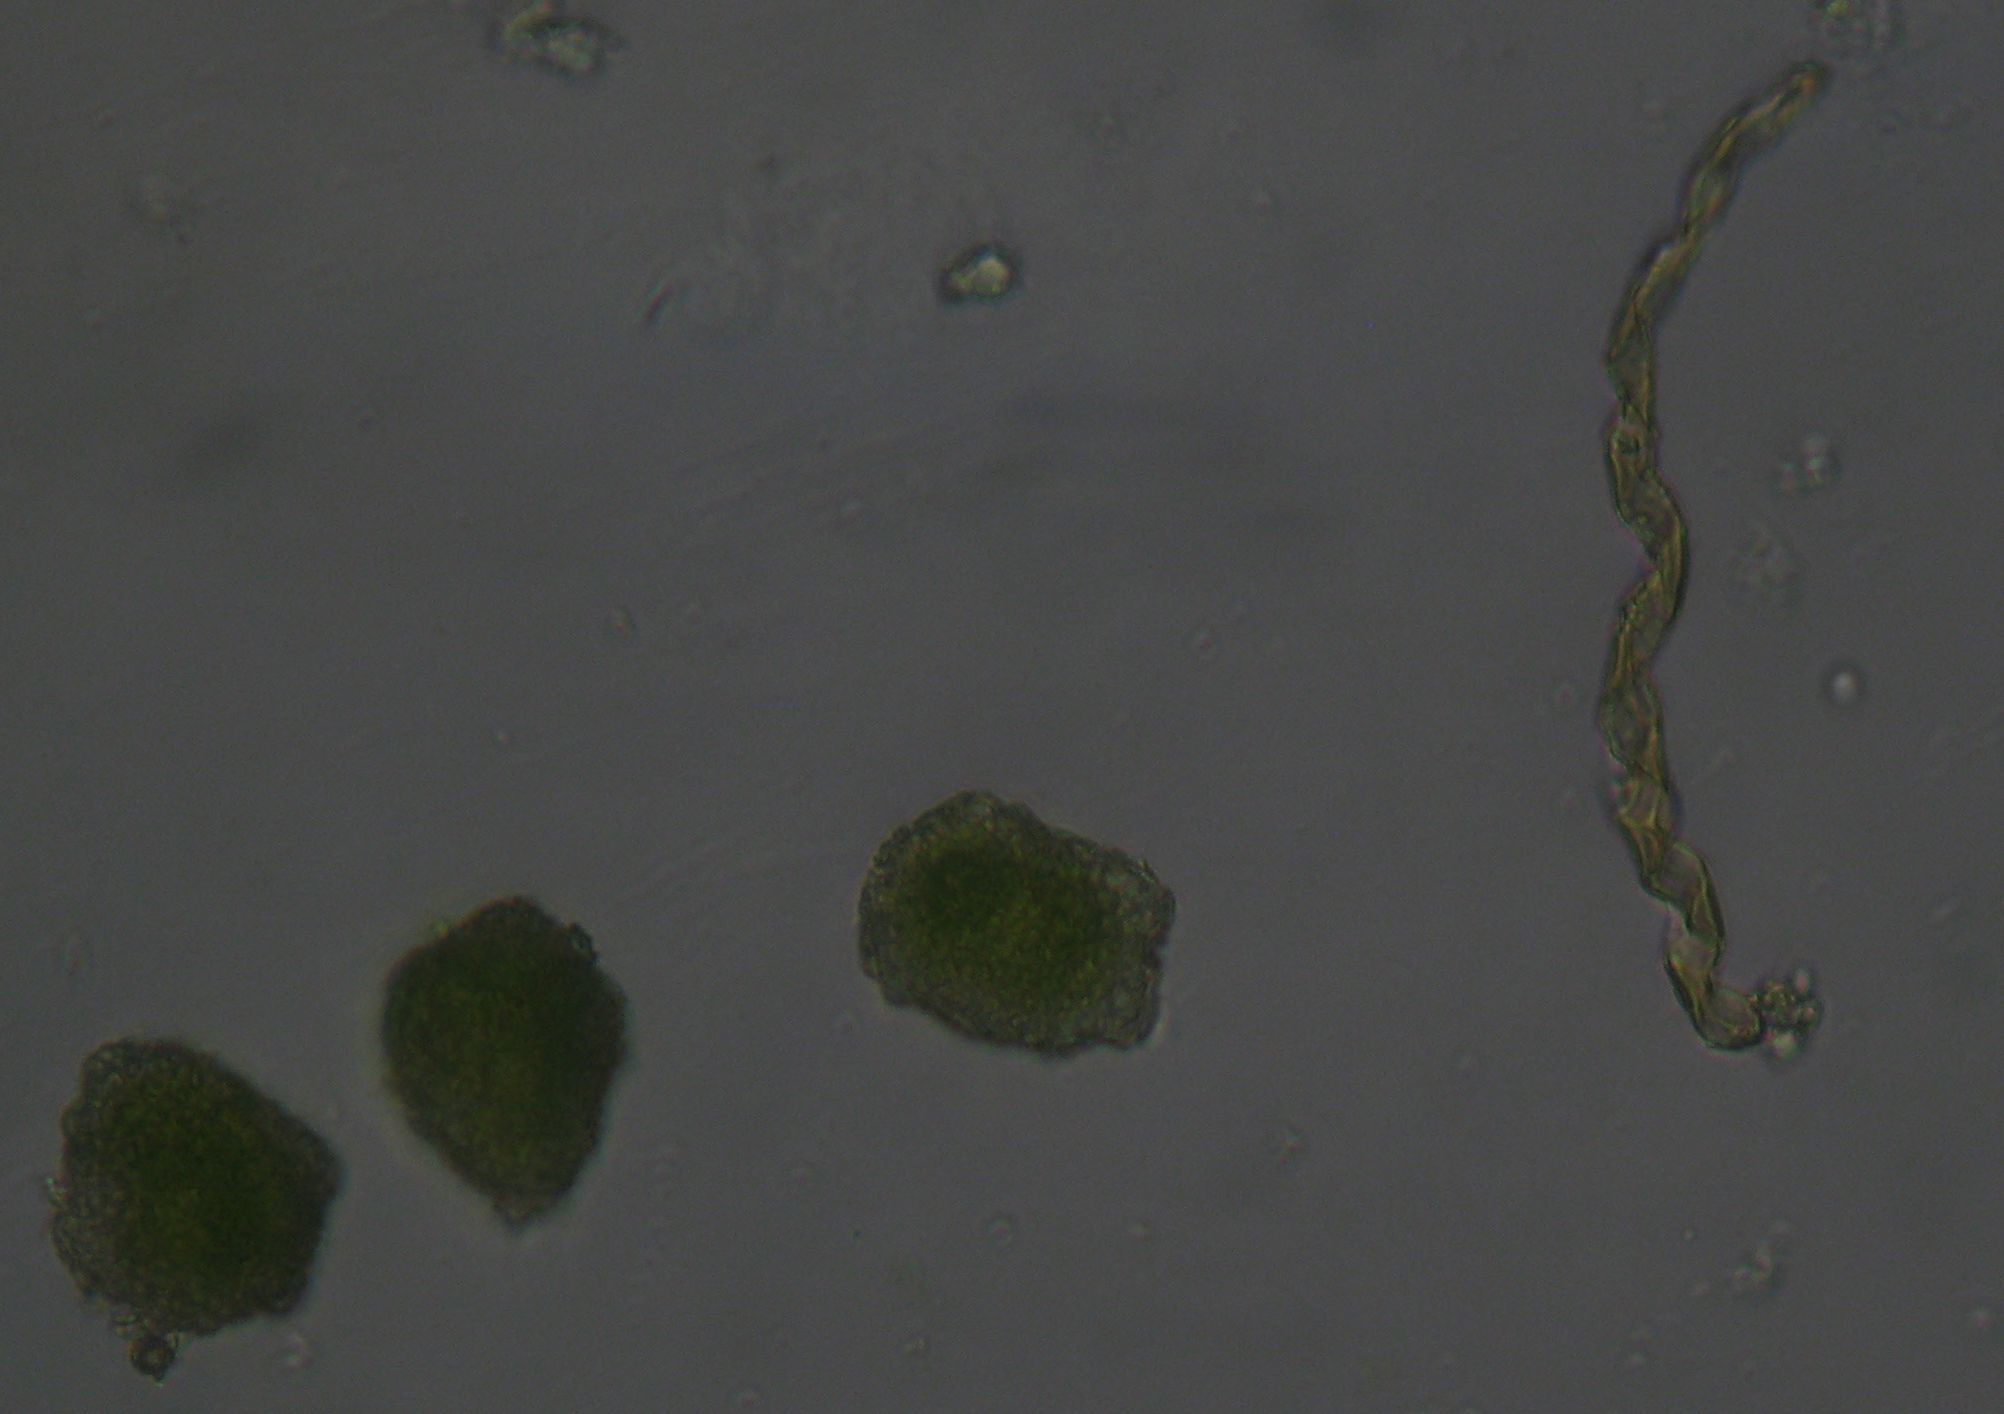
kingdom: Plantae
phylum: Anthocerotophyta
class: Anthocerotopsida
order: Dendrocerotales
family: Dendrocerotaceae
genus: Megaceros
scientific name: Megaceros flagellaris
